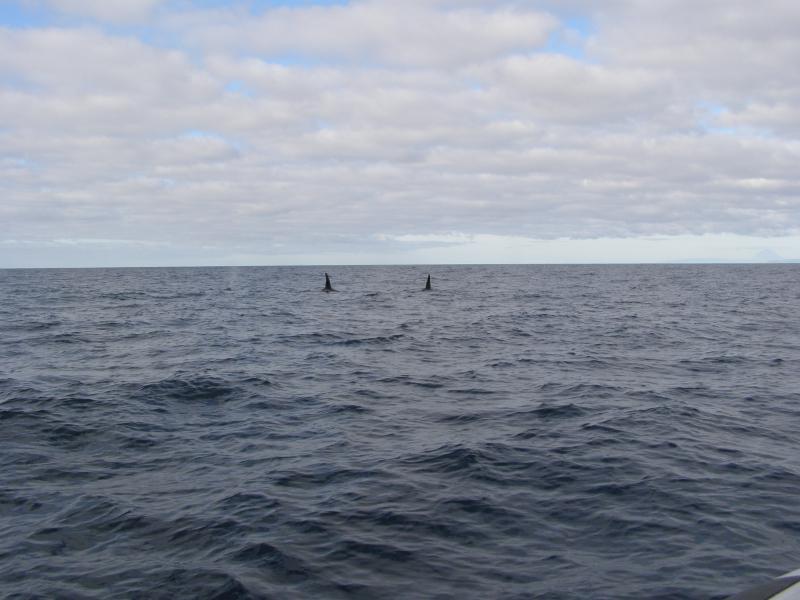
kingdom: Animalia
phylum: Chordata
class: Mammalia
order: Cetacea
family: Delphinidae
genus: Orcinus
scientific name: Orcinus orca
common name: Killer whale
